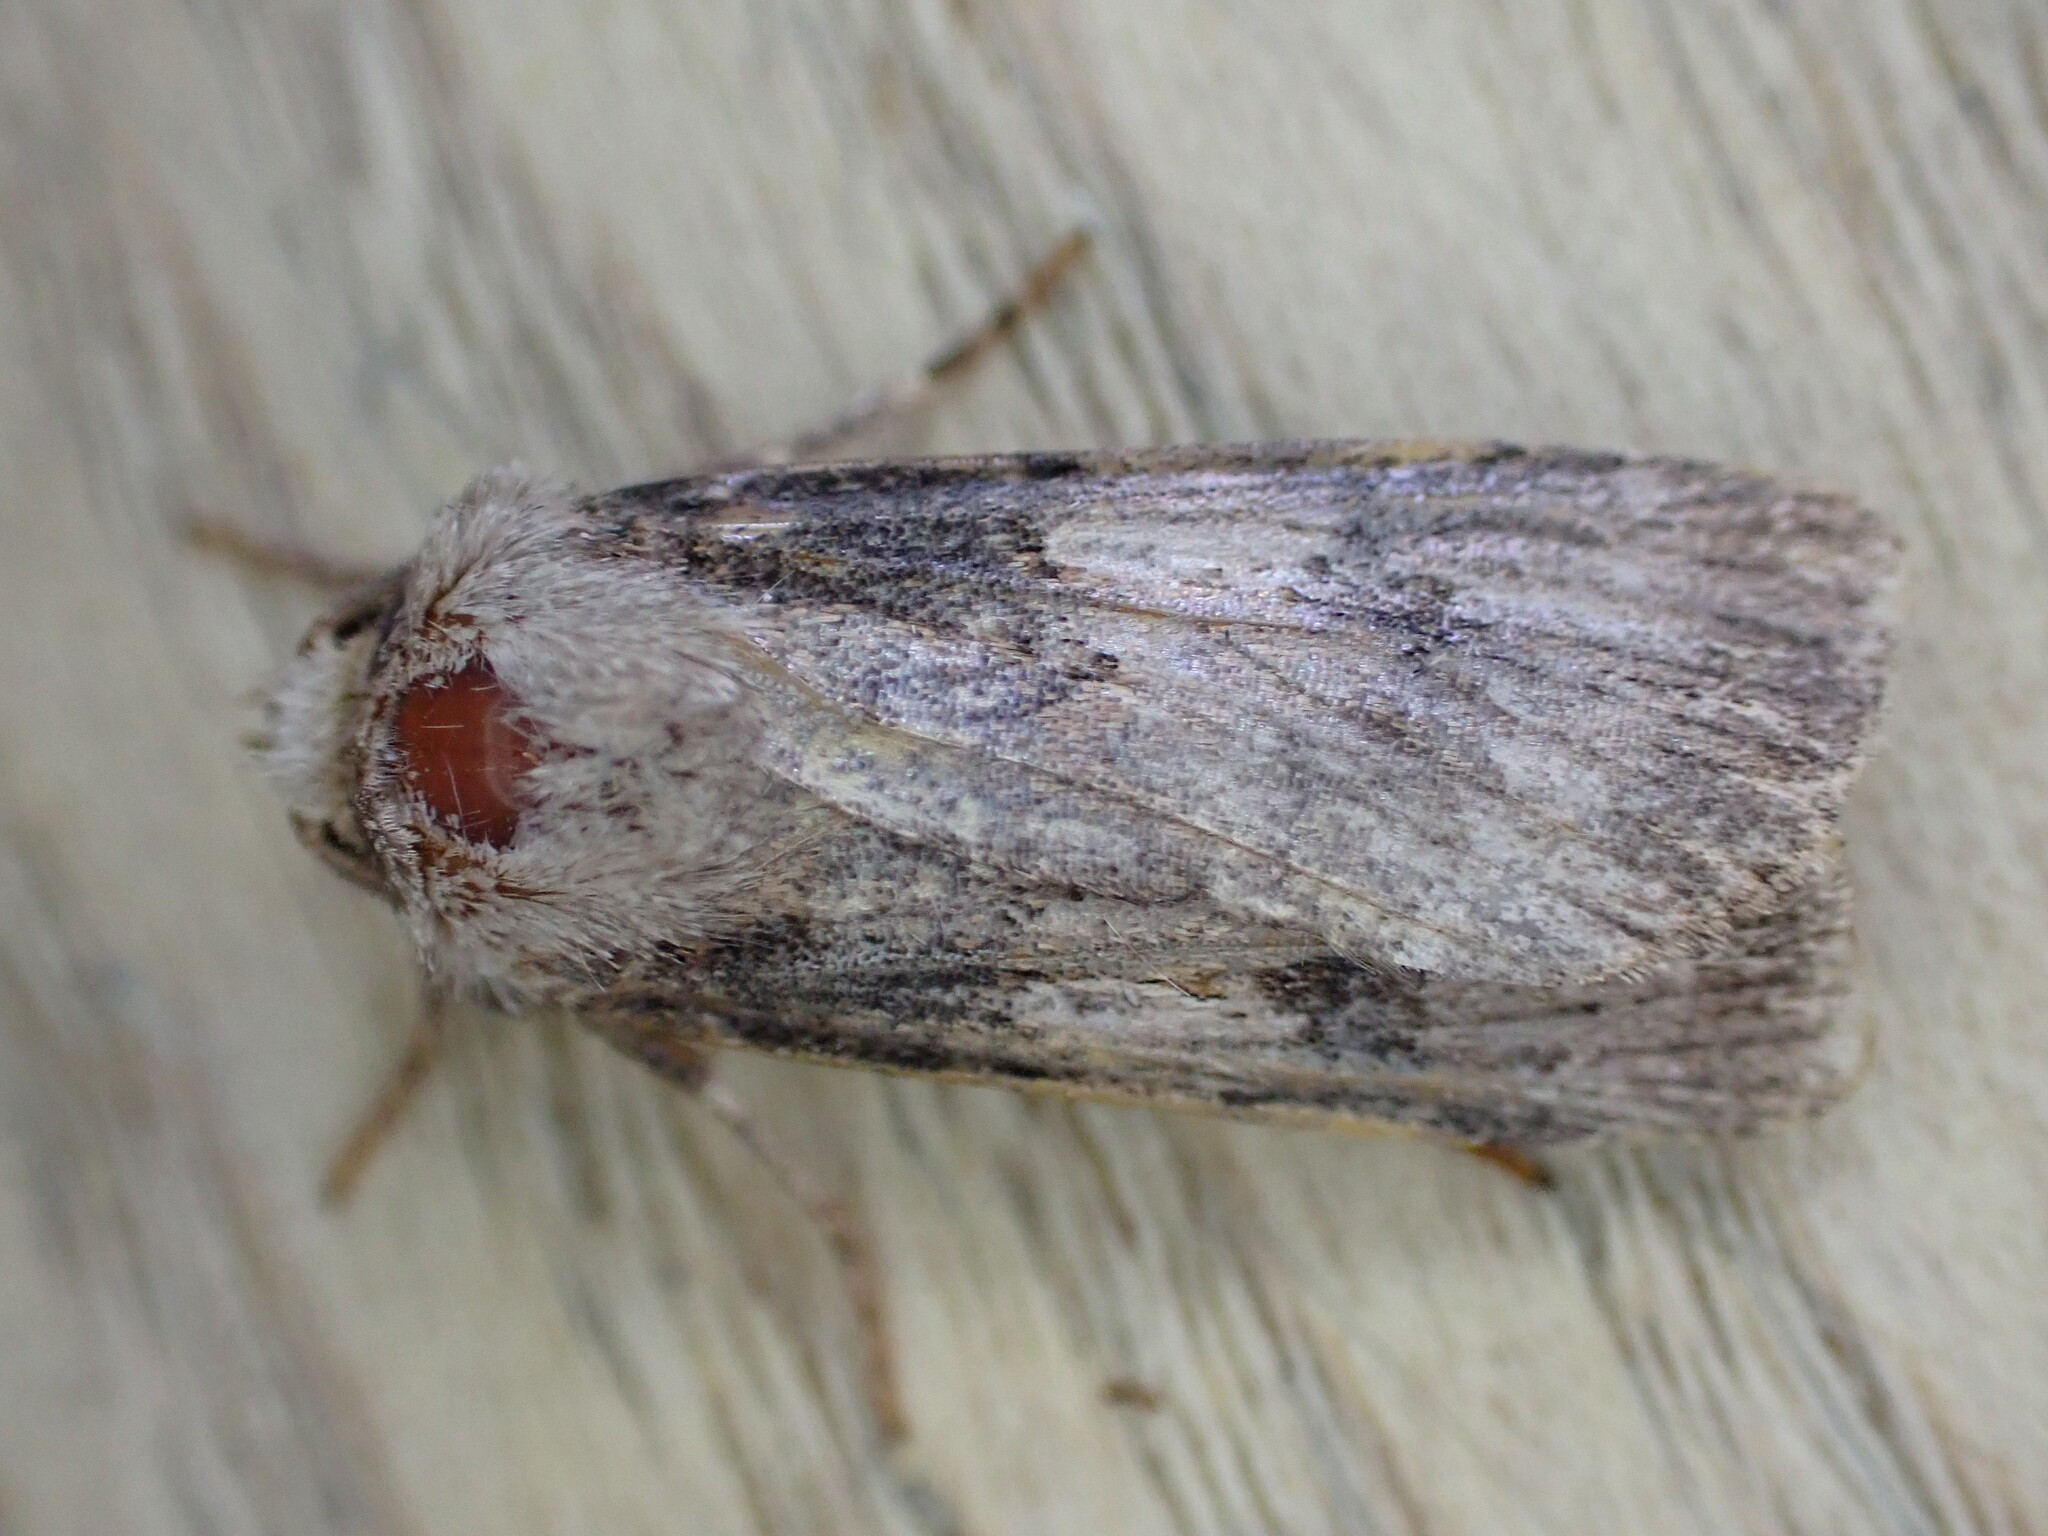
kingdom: Animalia
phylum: Arthropoda
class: Insecta
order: Lepidoptera
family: Noctuidae
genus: Agrotis
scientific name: Agrotis puta
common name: Shuttle-shaped dart
